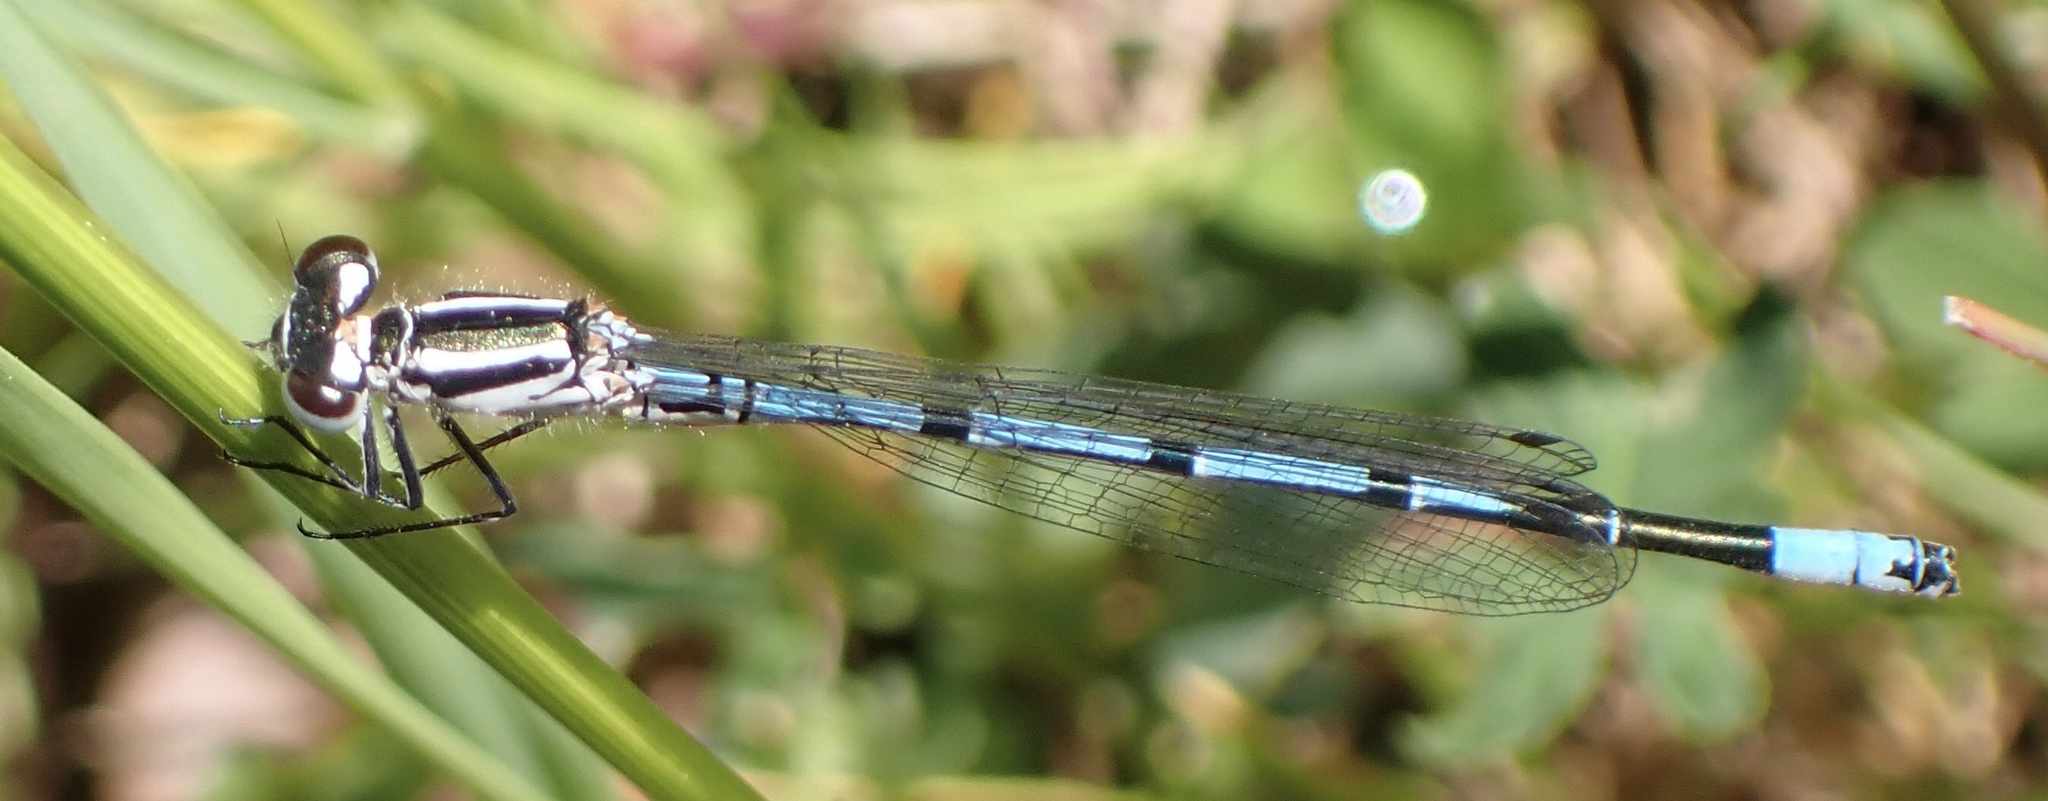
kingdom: Animalia
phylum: Arthropoda
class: Insecta
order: Odonata
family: Coenagrionidae
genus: Coenagrion
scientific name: Coenagrion puella
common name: Azure damselfly
